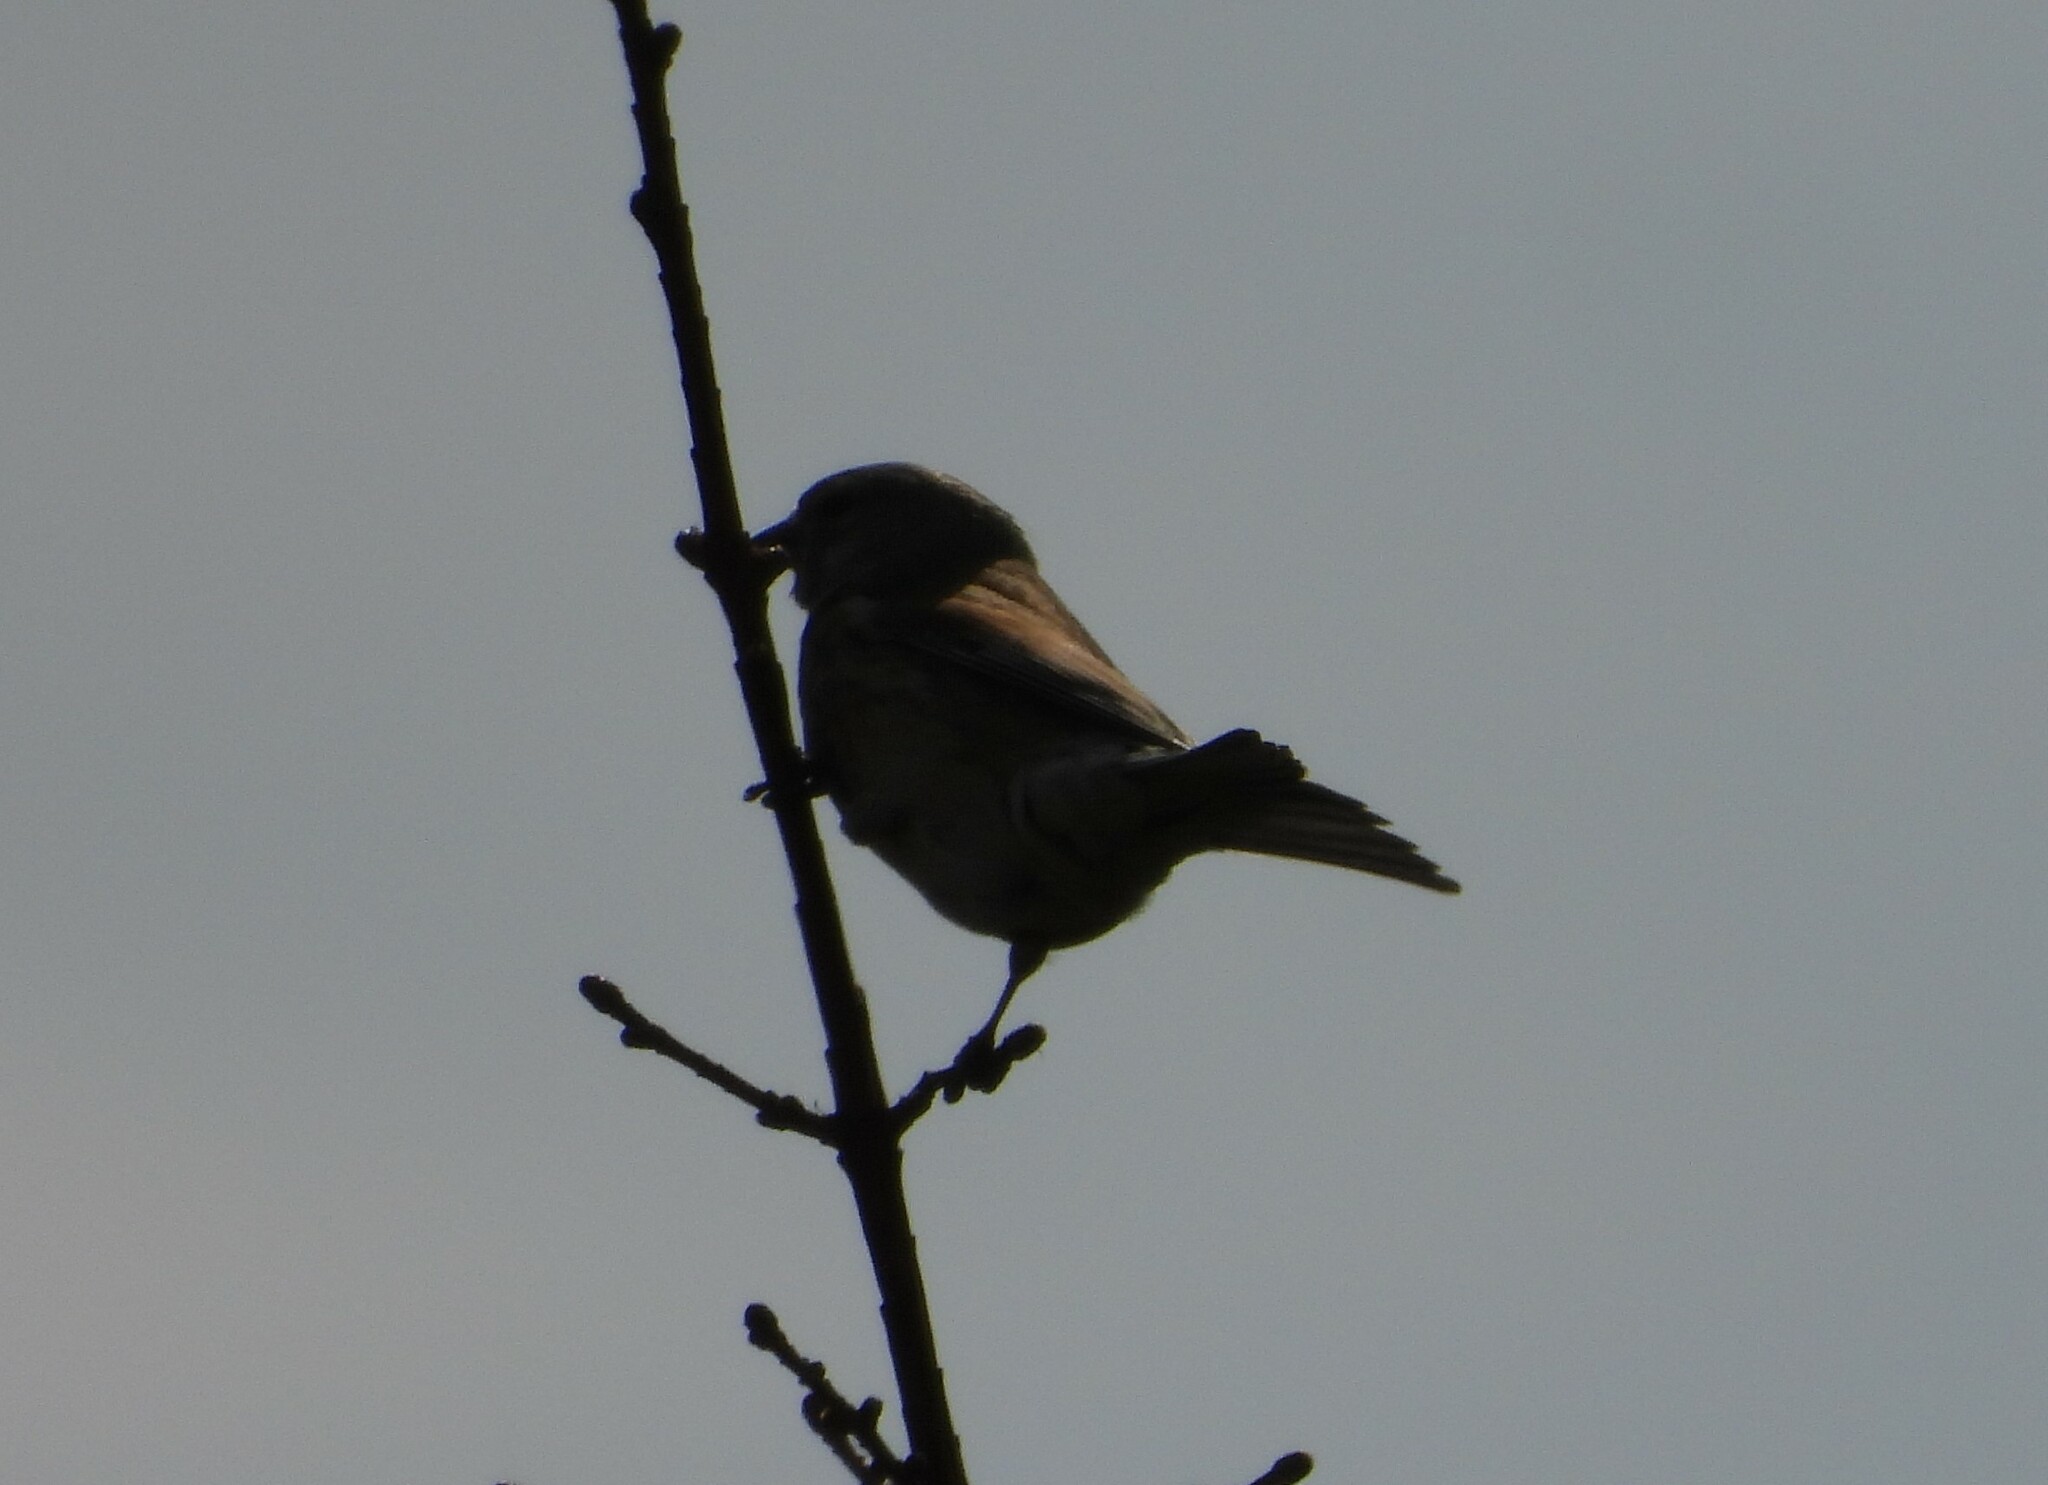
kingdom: Animalia
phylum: Chordata
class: Aves
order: Passeriformes
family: Fringillidae
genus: Linaria
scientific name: Linaria cannabina
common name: Common linnet
